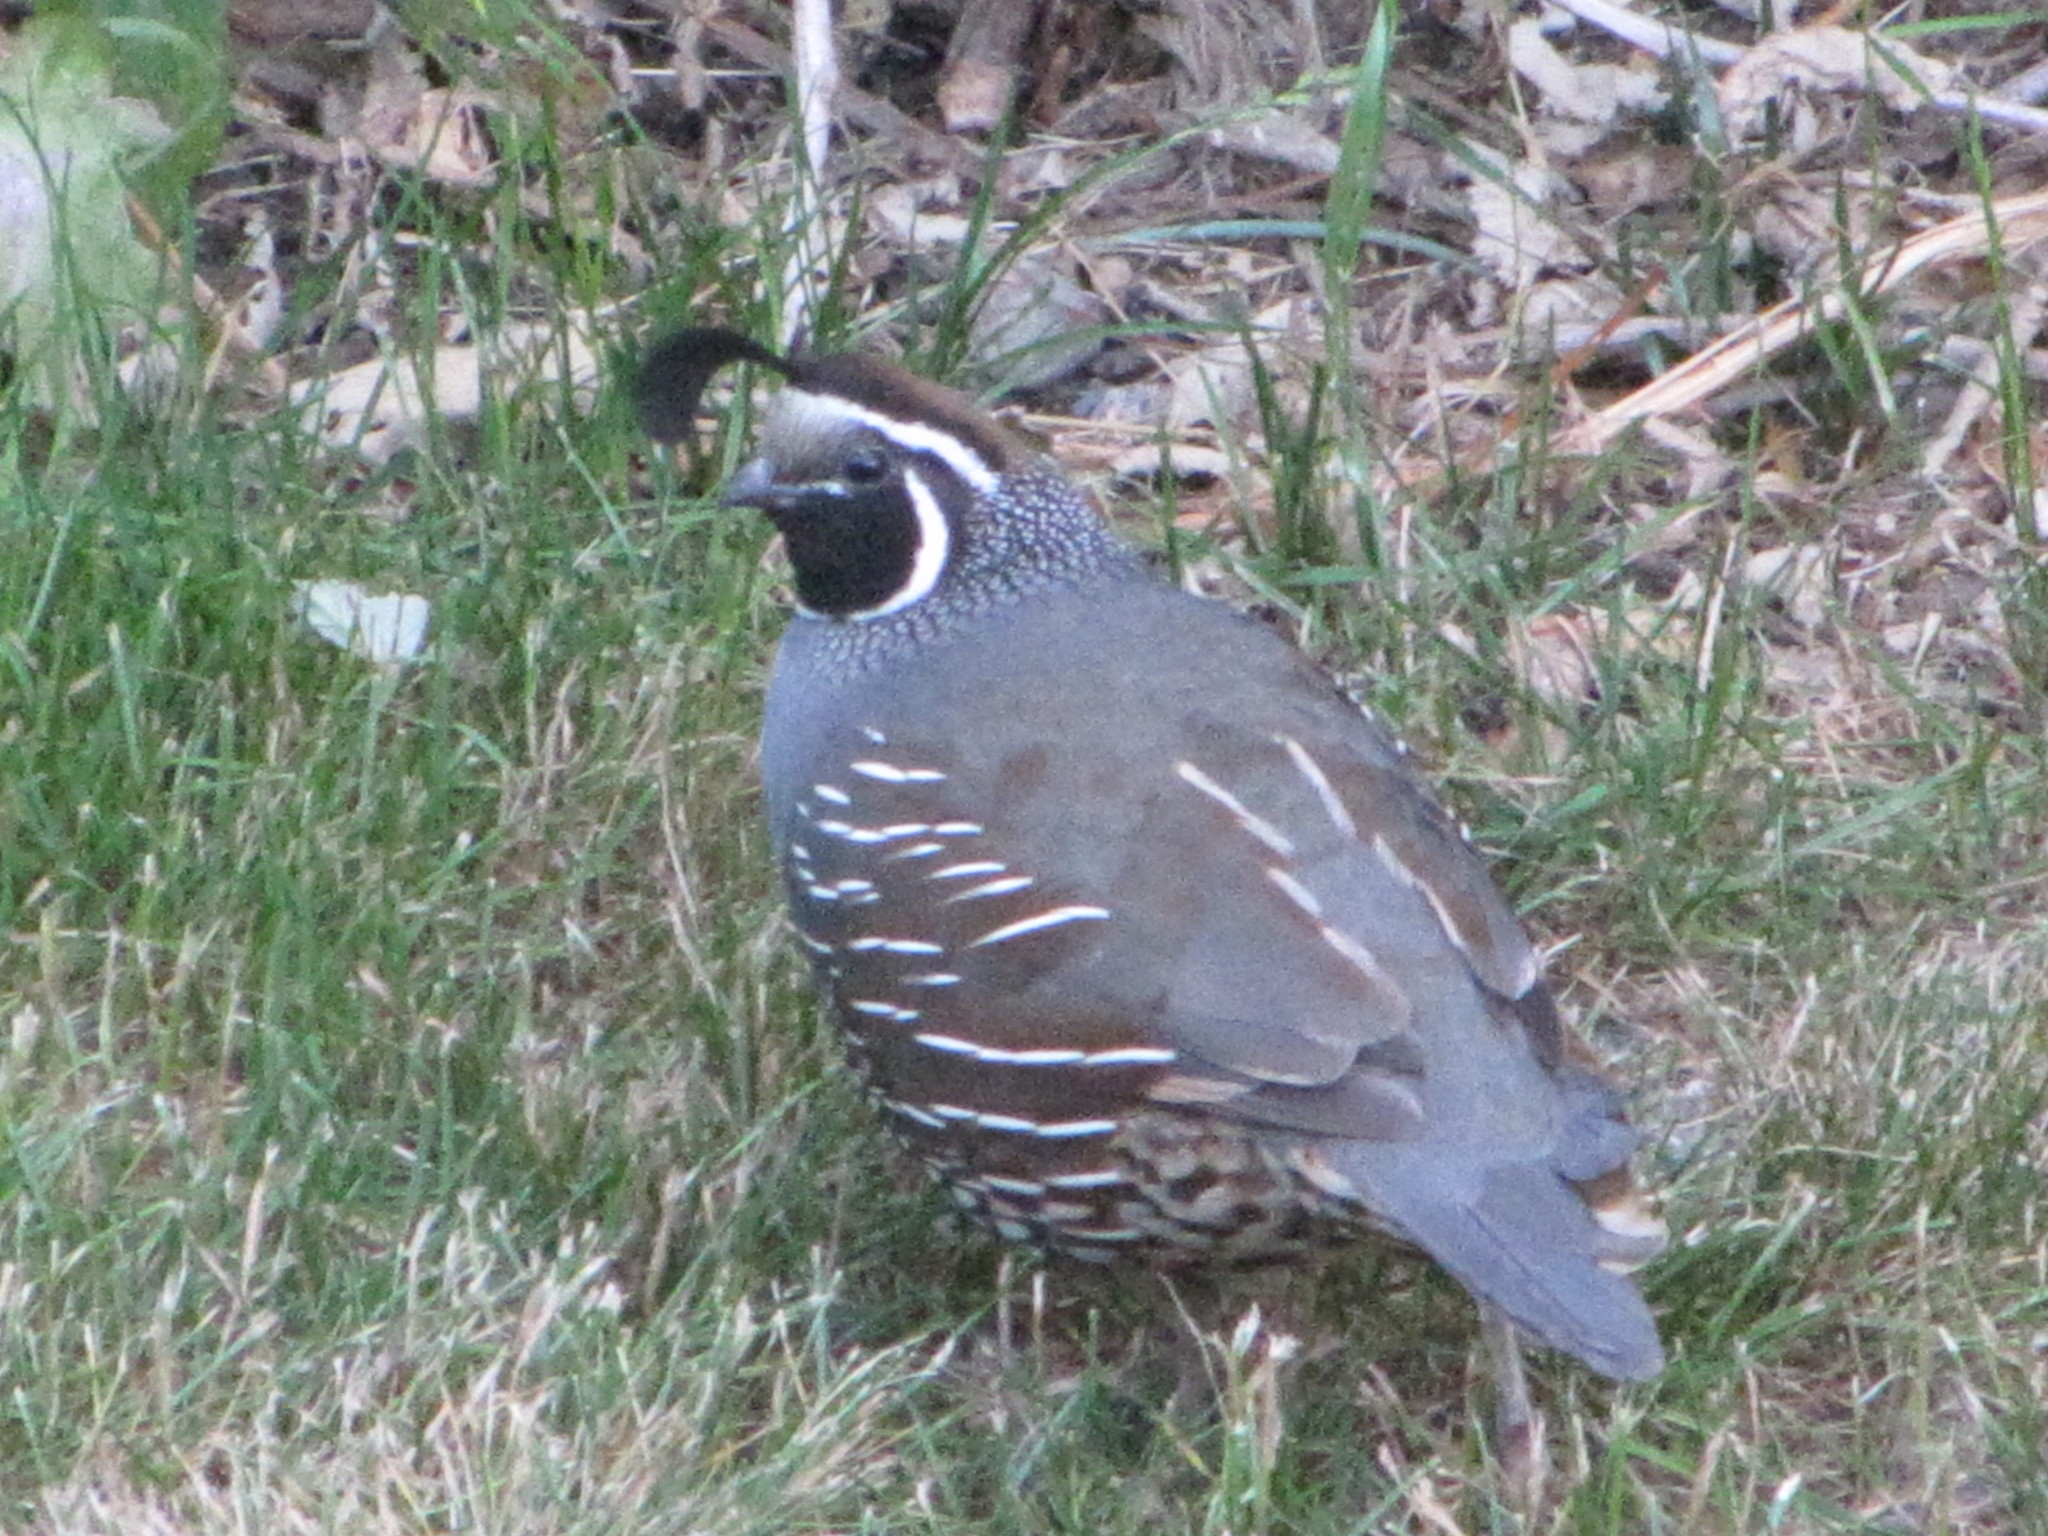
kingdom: Animalia
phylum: Chordata
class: Aves
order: Galliformes
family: Odontophoridae
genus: Callipepla
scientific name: Callipepla californica
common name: California quail
